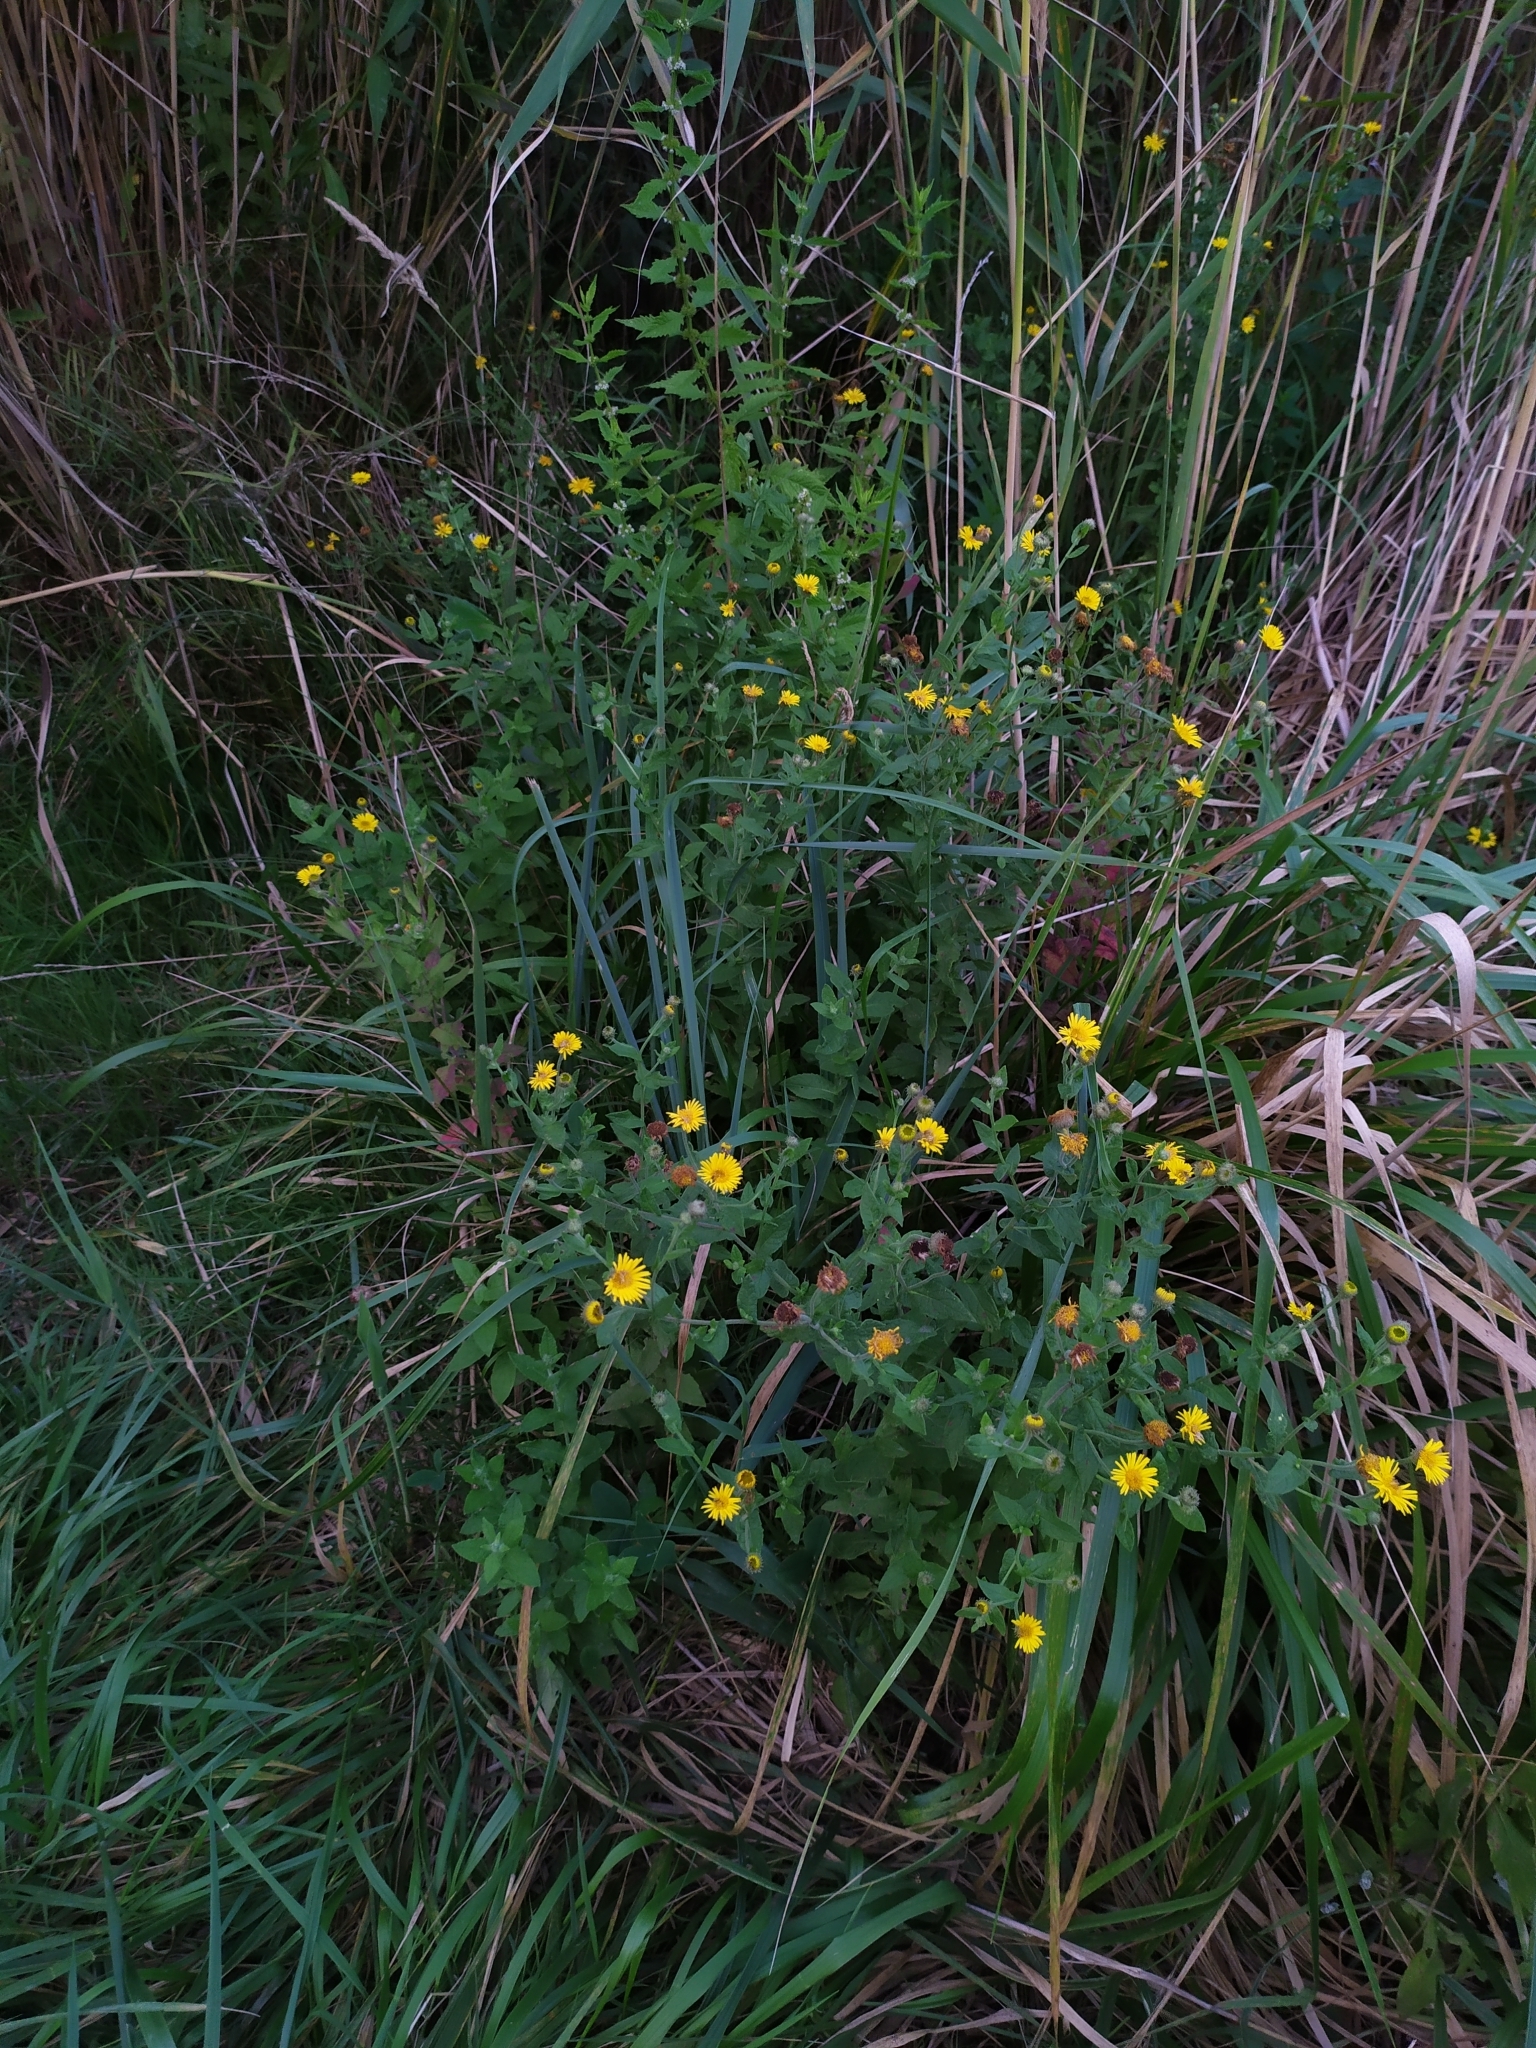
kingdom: Plantae
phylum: Tracheophyta
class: Magnoliopsida
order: Asterales
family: Asteraceae
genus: Pulicaria
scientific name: Pulicaria dysenterica
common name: Common fleabane
